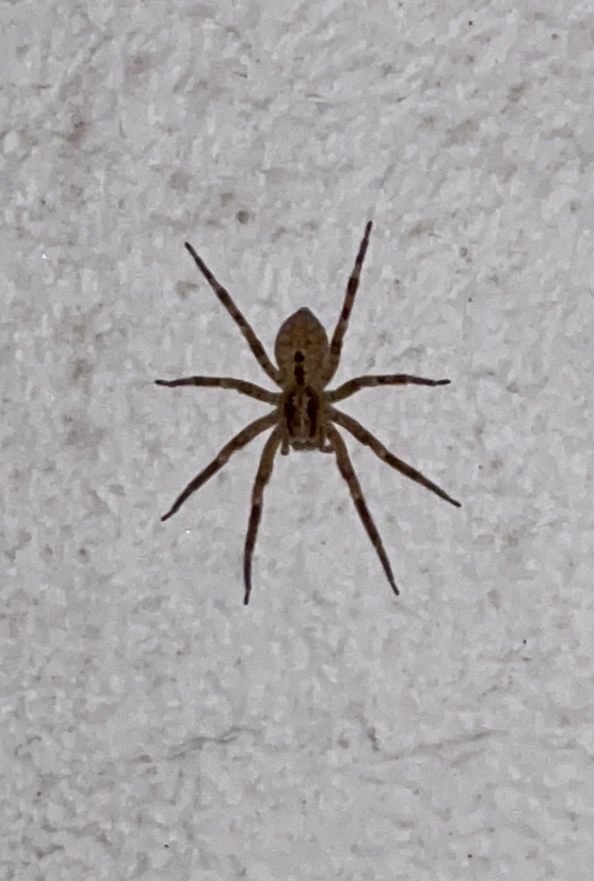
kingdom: Animalia
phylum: Arthropoda
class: Arachnida
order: Araneae
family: Zoropsidae
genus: Zoropsis
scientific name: Zoropsis spinimana
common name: Zoropsid spider
